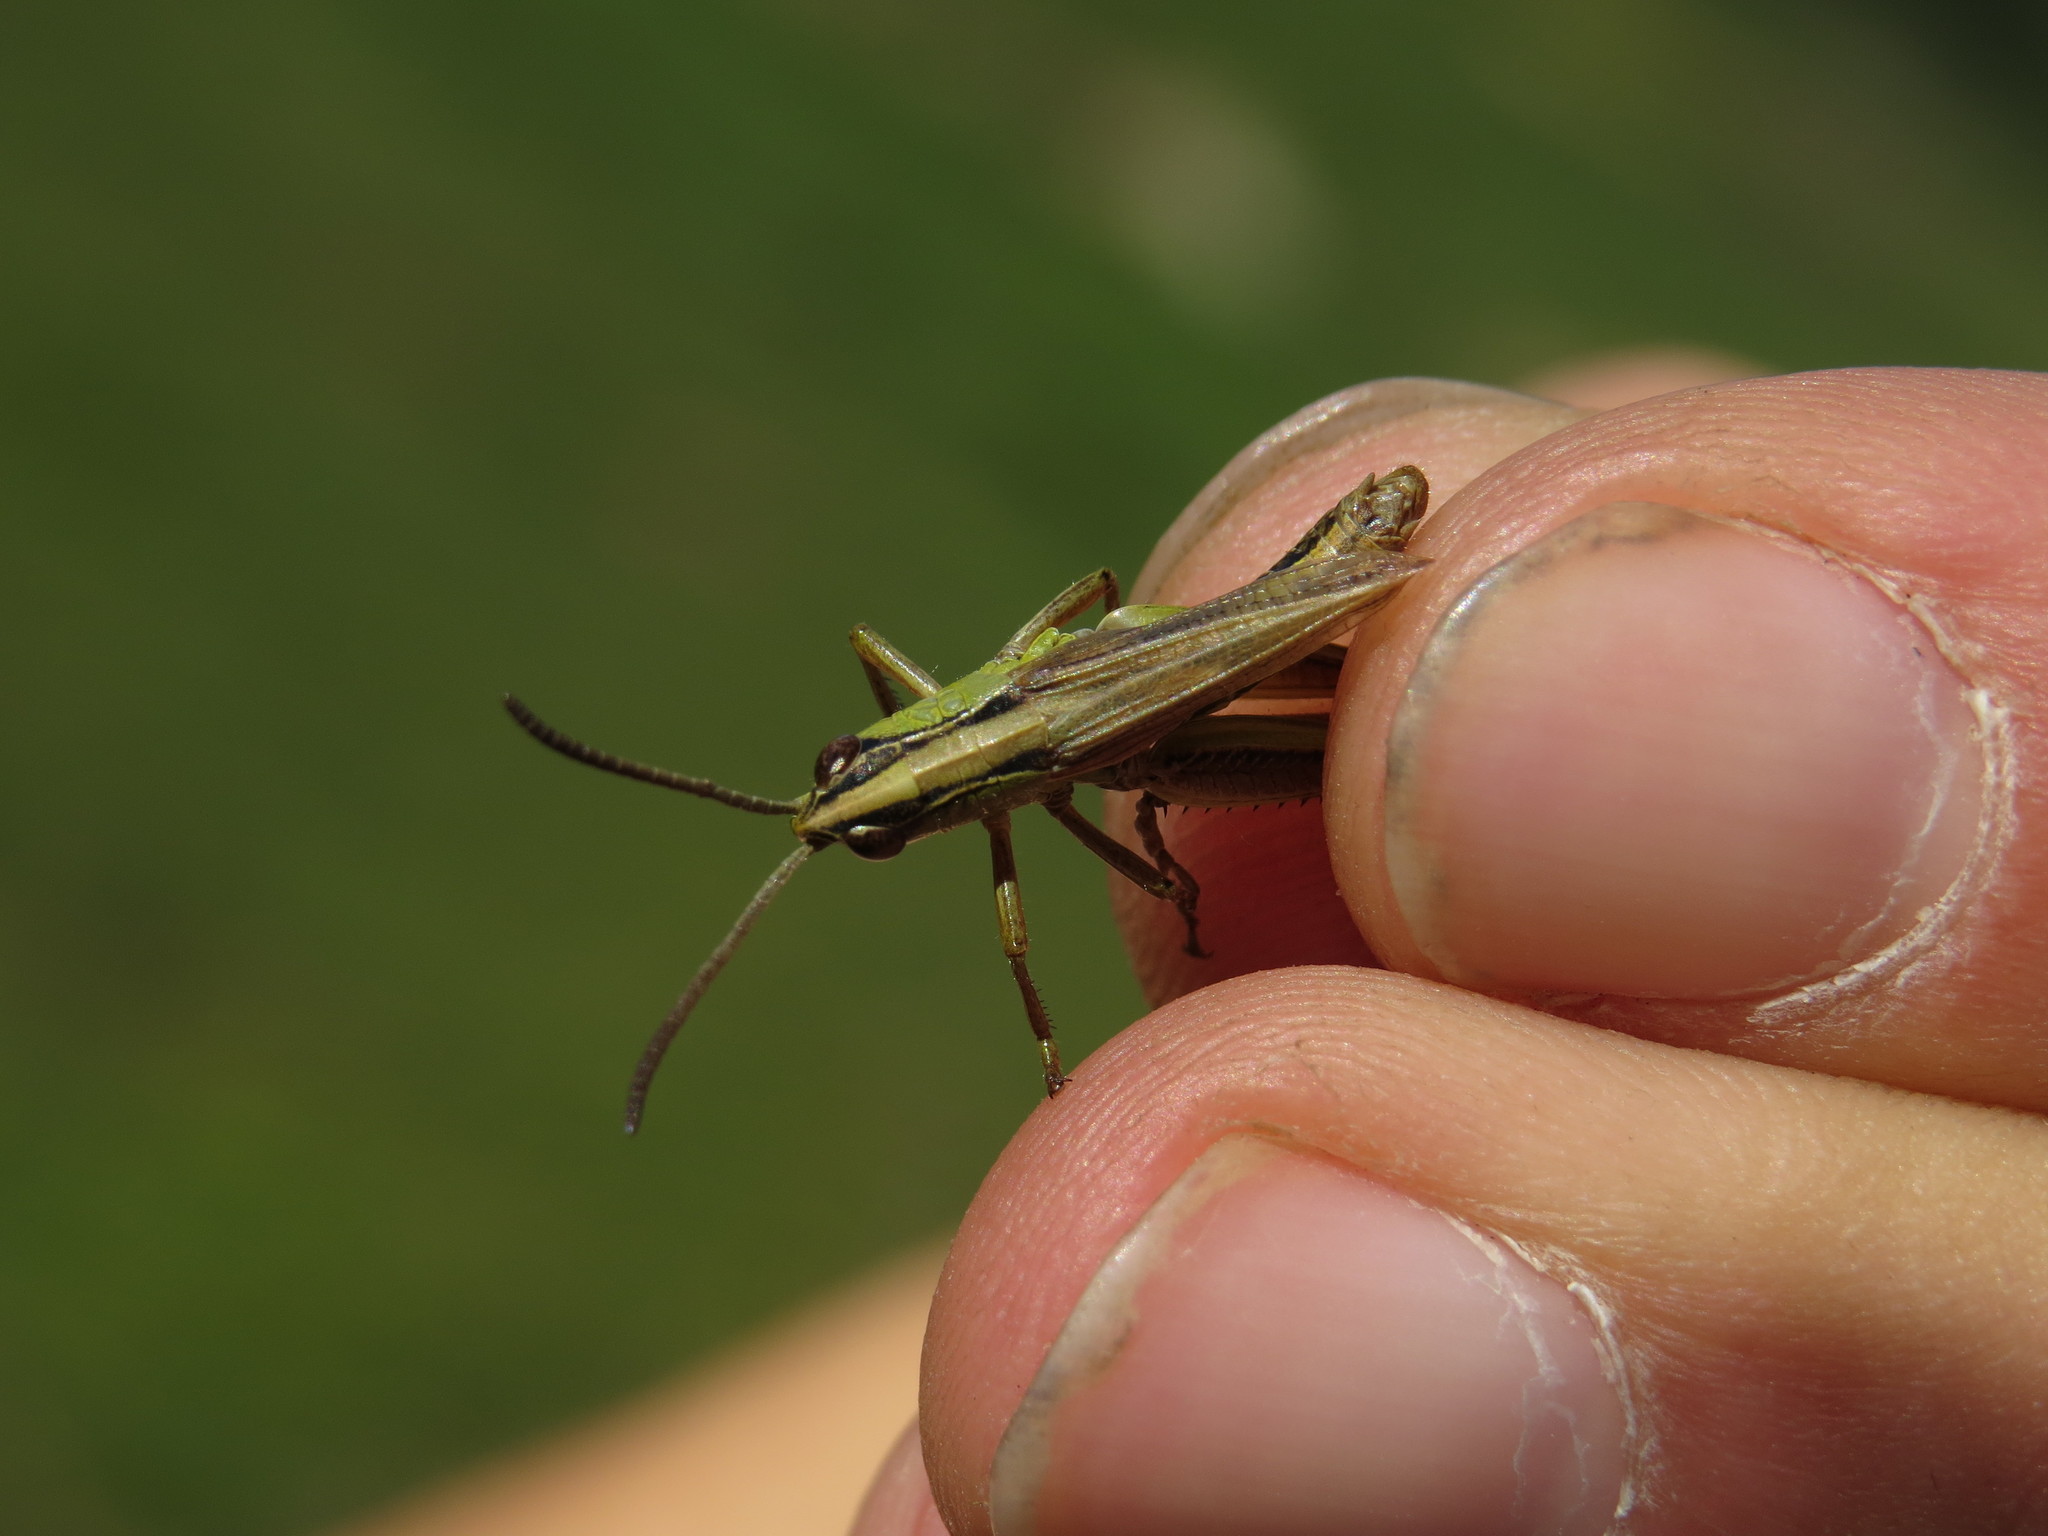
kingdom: Animalia
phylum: Arthropoda
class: Insecta
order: Orthoptera
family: Acrididae
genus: Pseudochorthippus
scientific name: Pseudochorthippus parallelus
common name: Meadow grasshopper
